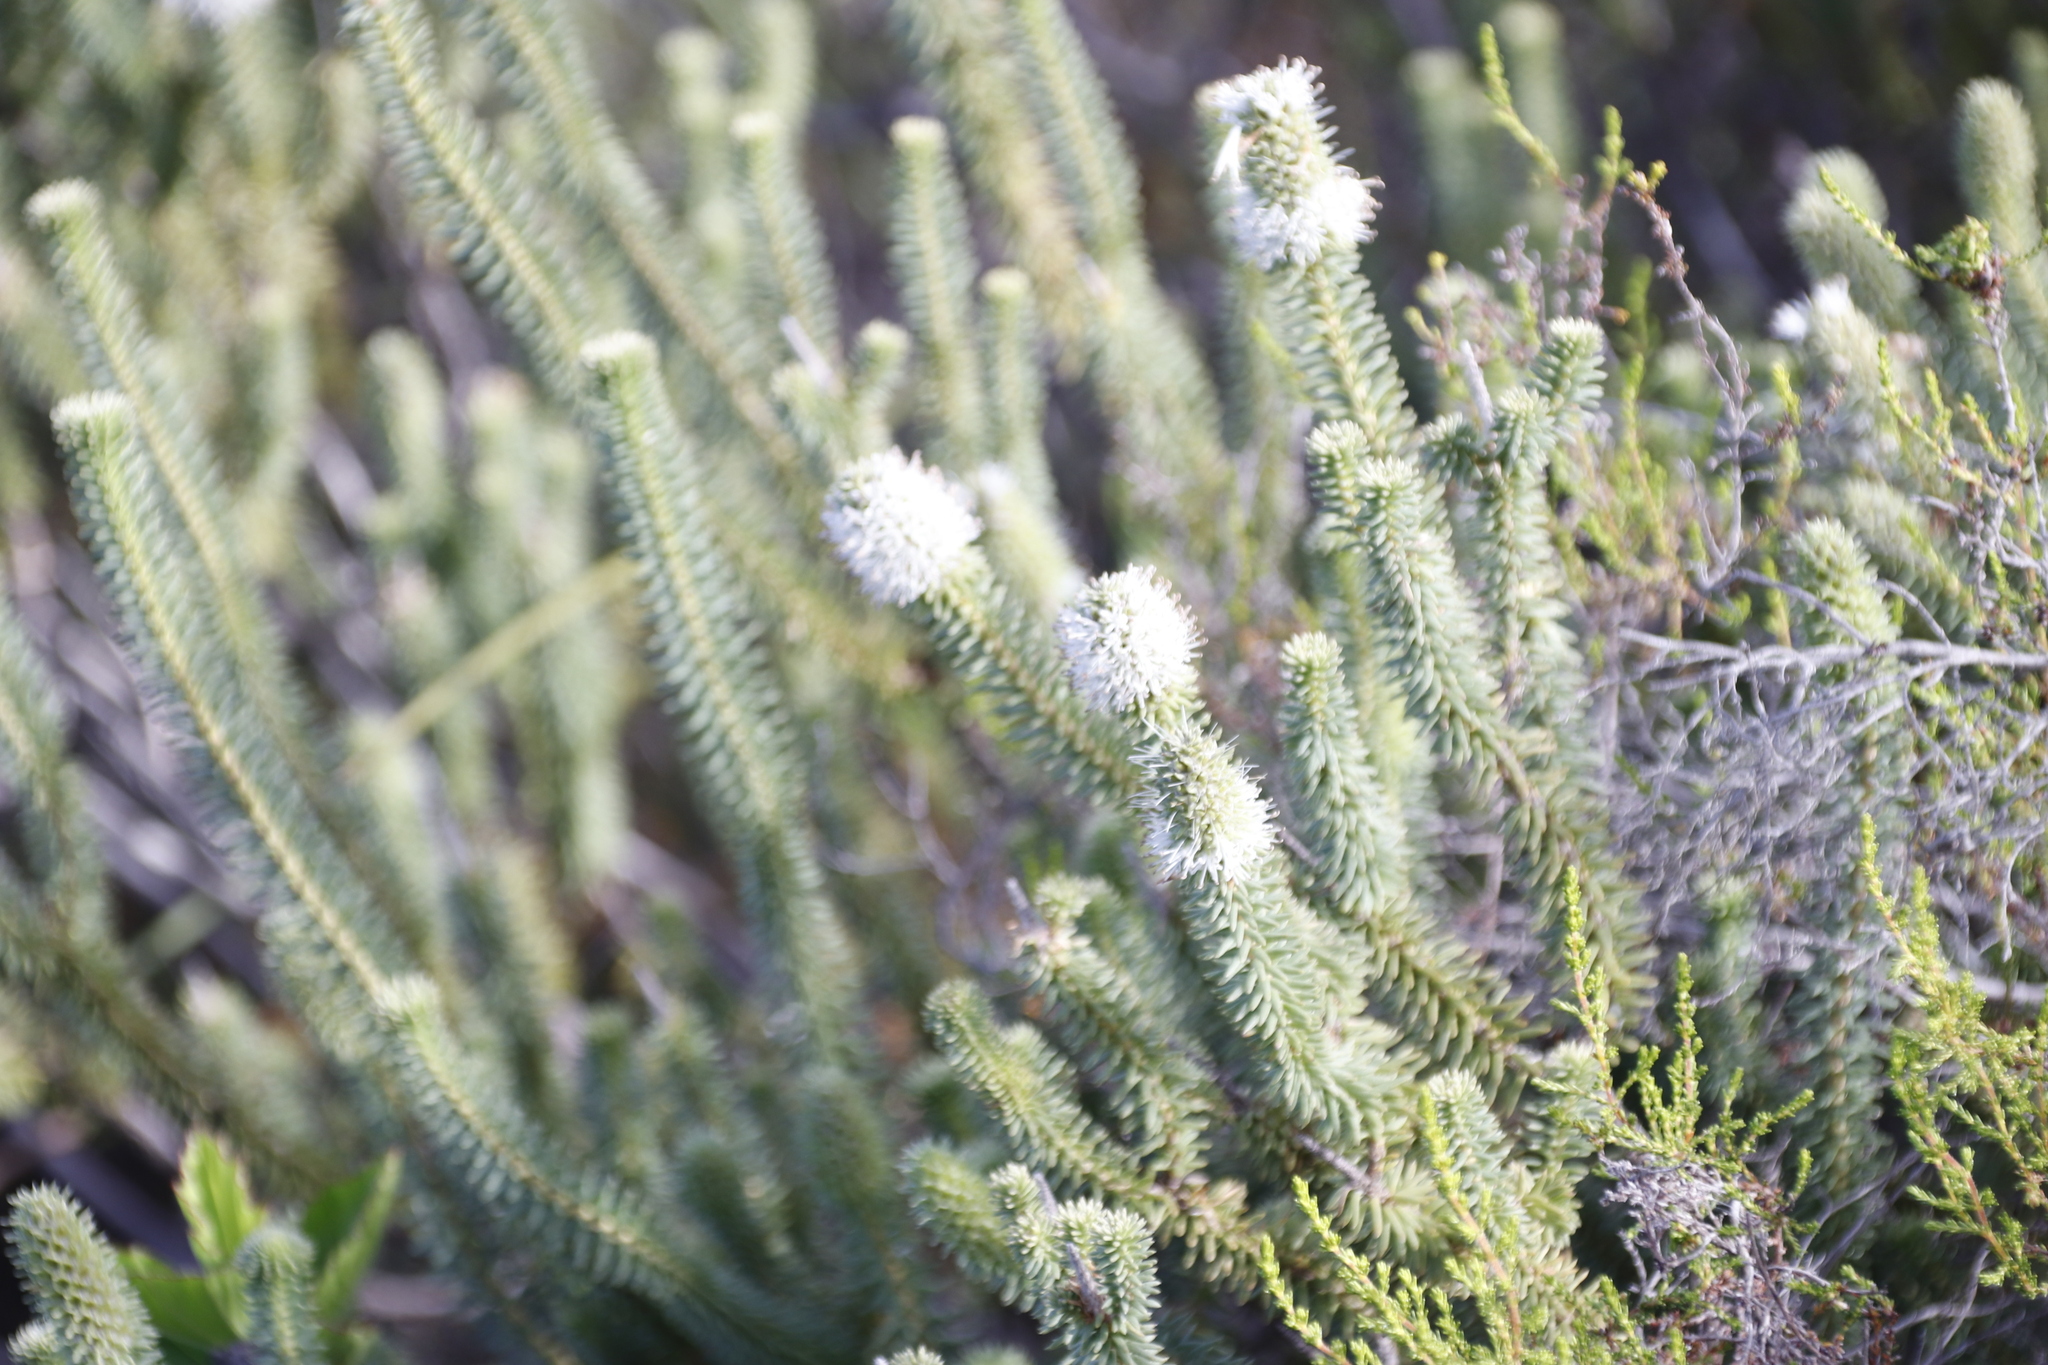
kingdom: Plantae
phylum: Tracheophyta
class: Magnoliopsida
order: Lamiales
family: Stilbaceae
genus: Stilbe
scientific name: Stilbe vestita
